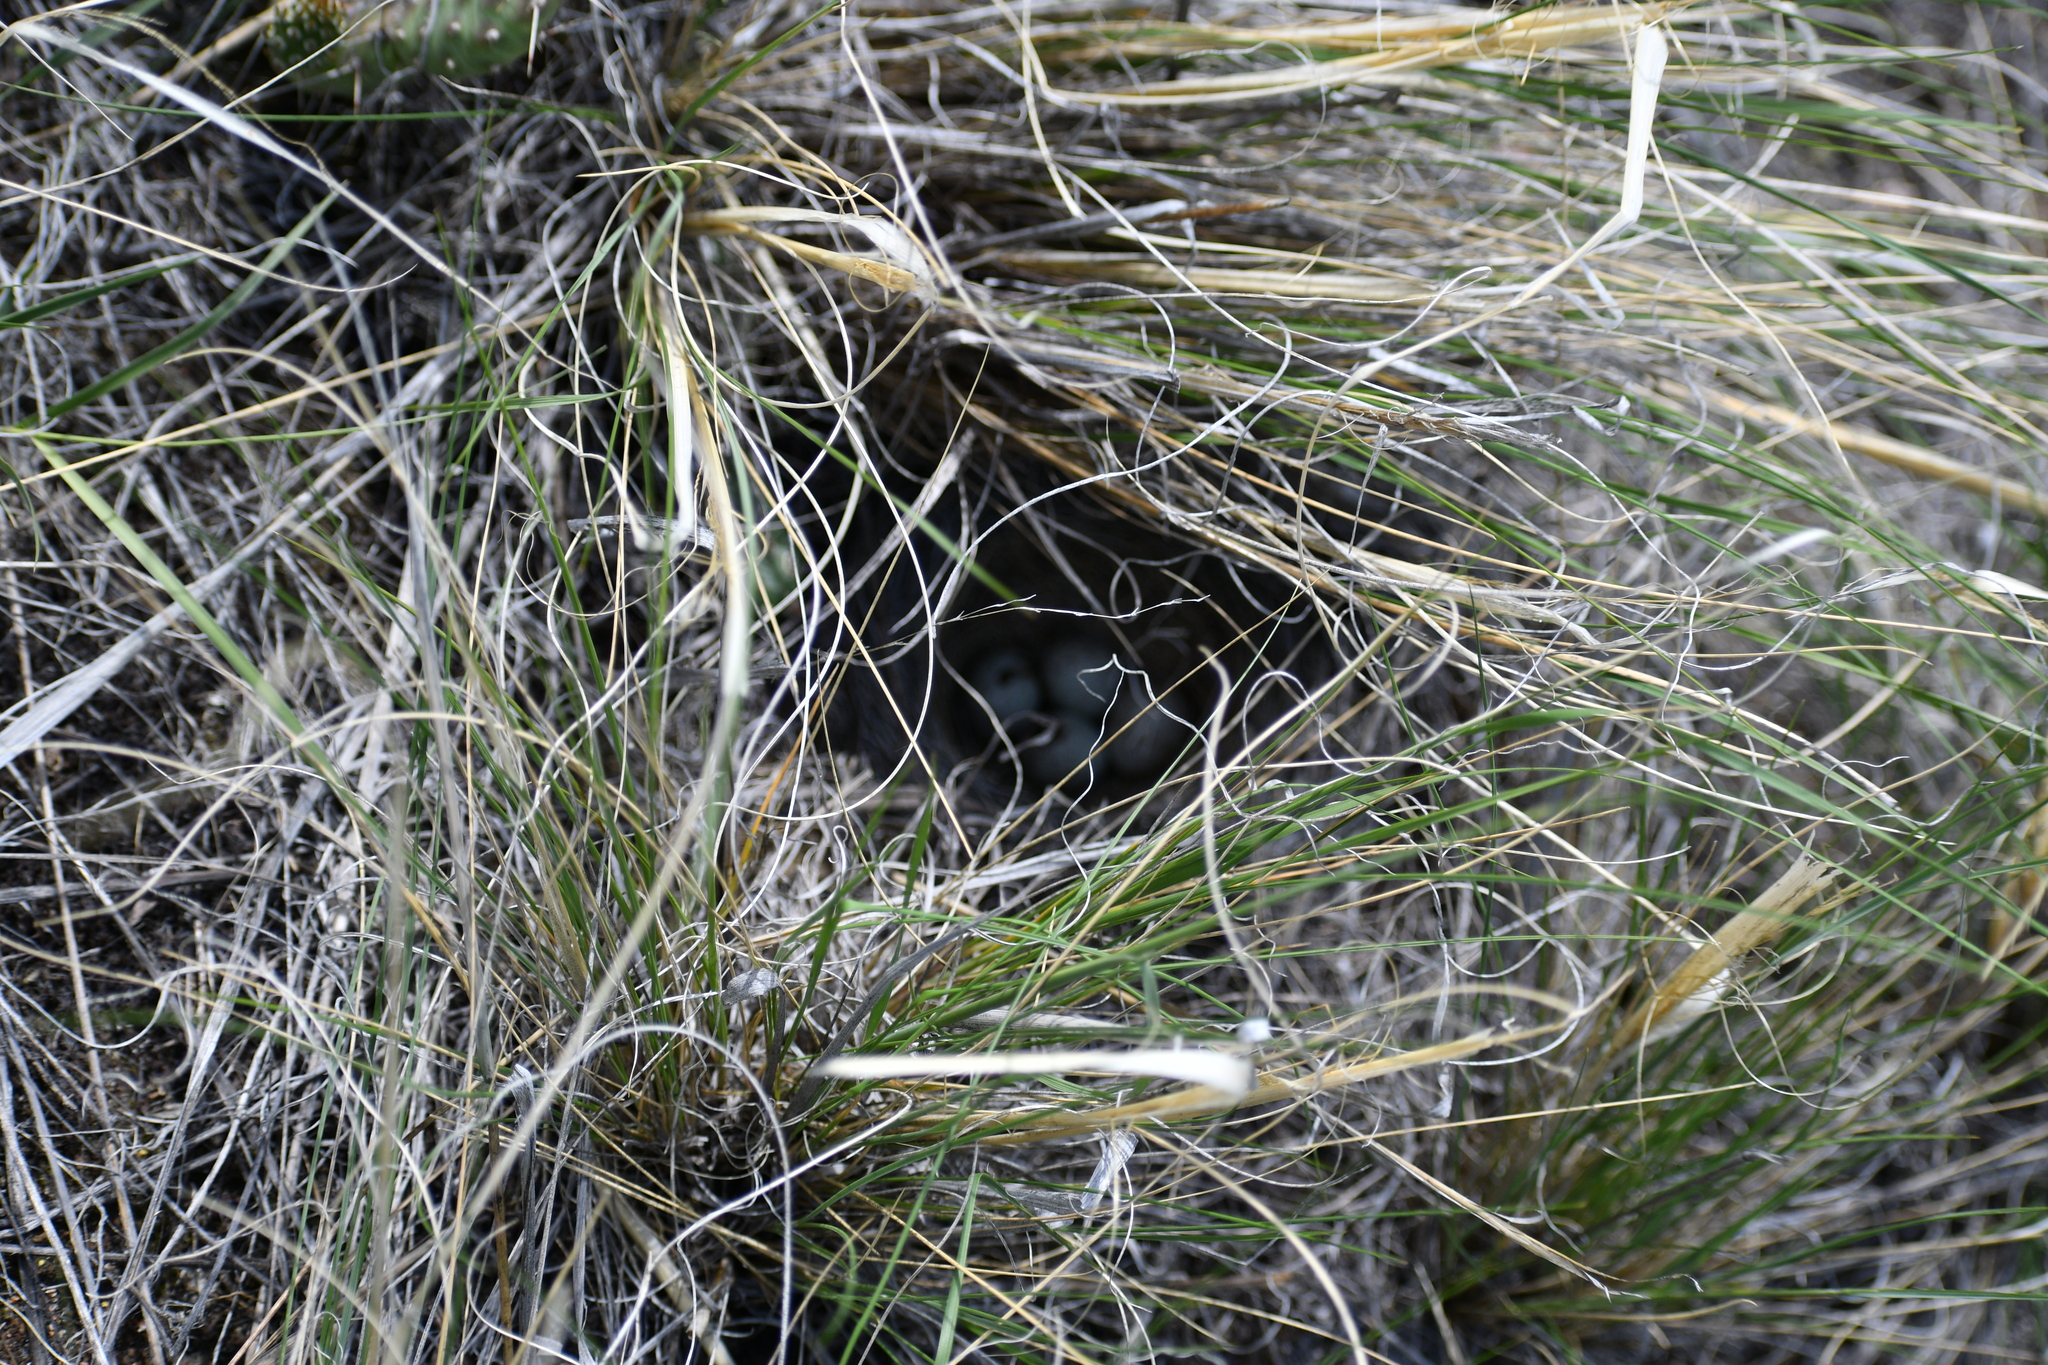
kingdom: Animalia
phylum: Chordata
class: Aves
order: Passeriformes
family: Passerellidae
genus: Pooecetes
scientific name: Pooecetes gramineus
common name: Vesper sparrow
